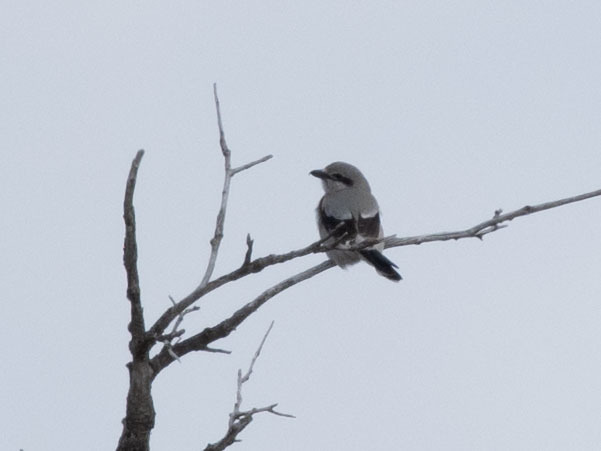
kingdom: Animalia
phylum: Chordata
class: Aves
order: Passeriformes
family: Laniidae
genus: Lanius
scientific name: Lanius borealis
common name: Northern shrike
